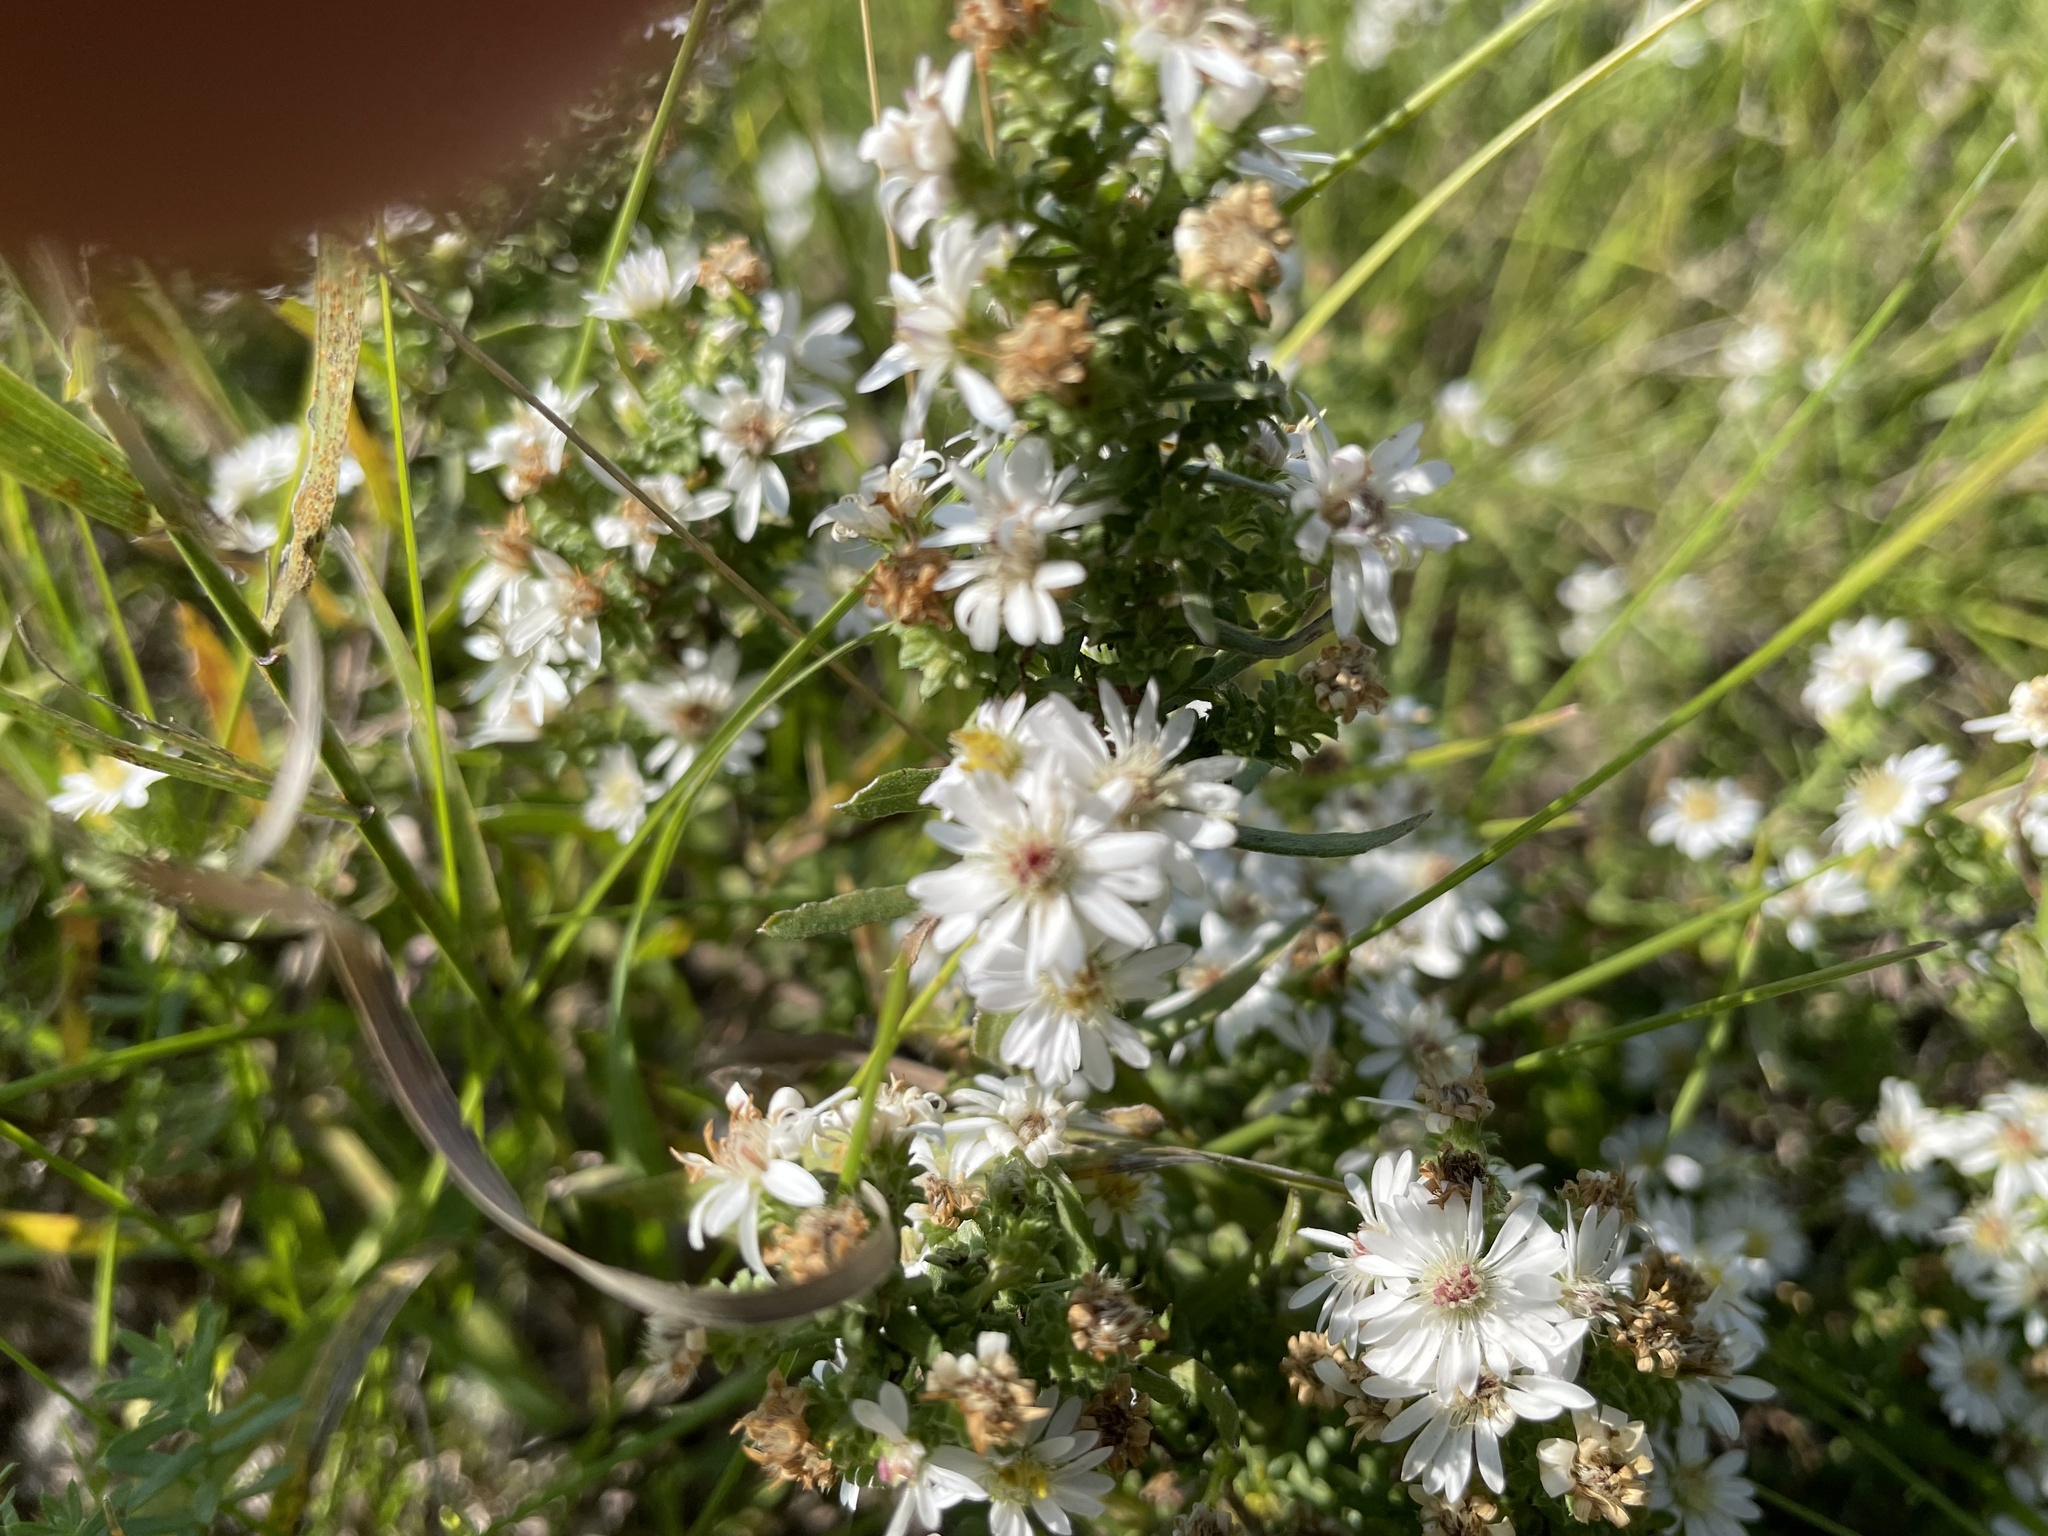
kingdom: Plantae
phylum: Tracheophyta
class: Magnoliopsida
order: Asterales
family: Asteraceae
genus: Symphyotrichum
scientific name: Symphyotrichum ericoides
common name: Heath aster
